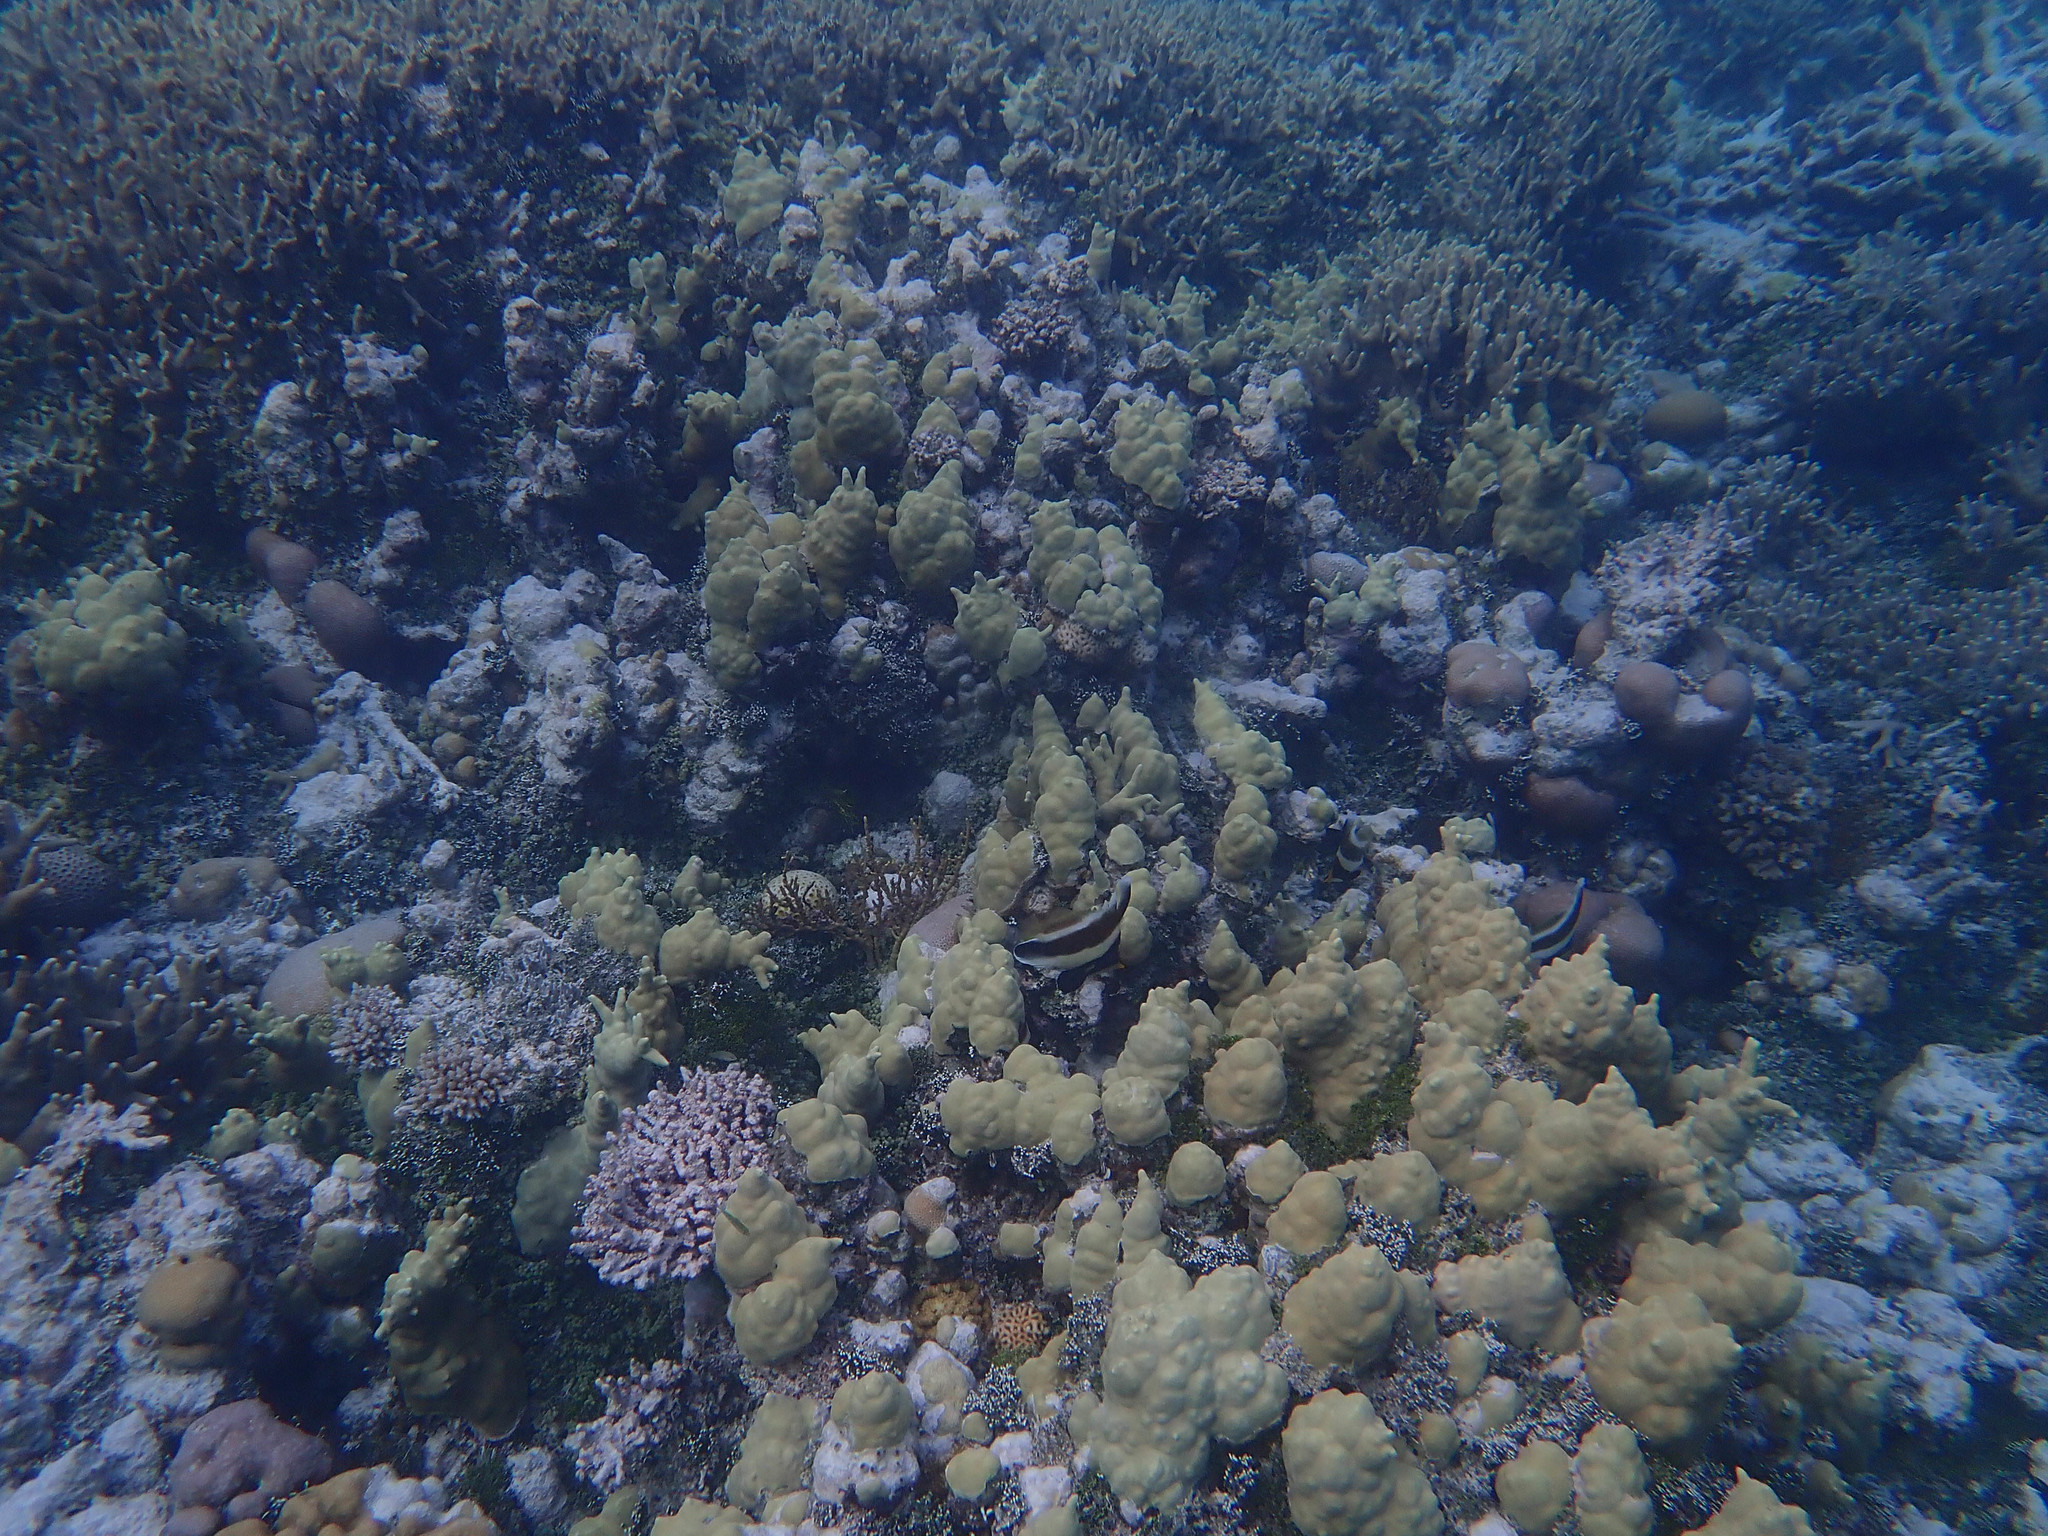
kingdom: Animalia
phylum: Chordata
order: Perciformes
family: Chaetodontidae
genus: Heniochus
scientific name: Heniochus chrysostomus
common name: Horned bannerfish
